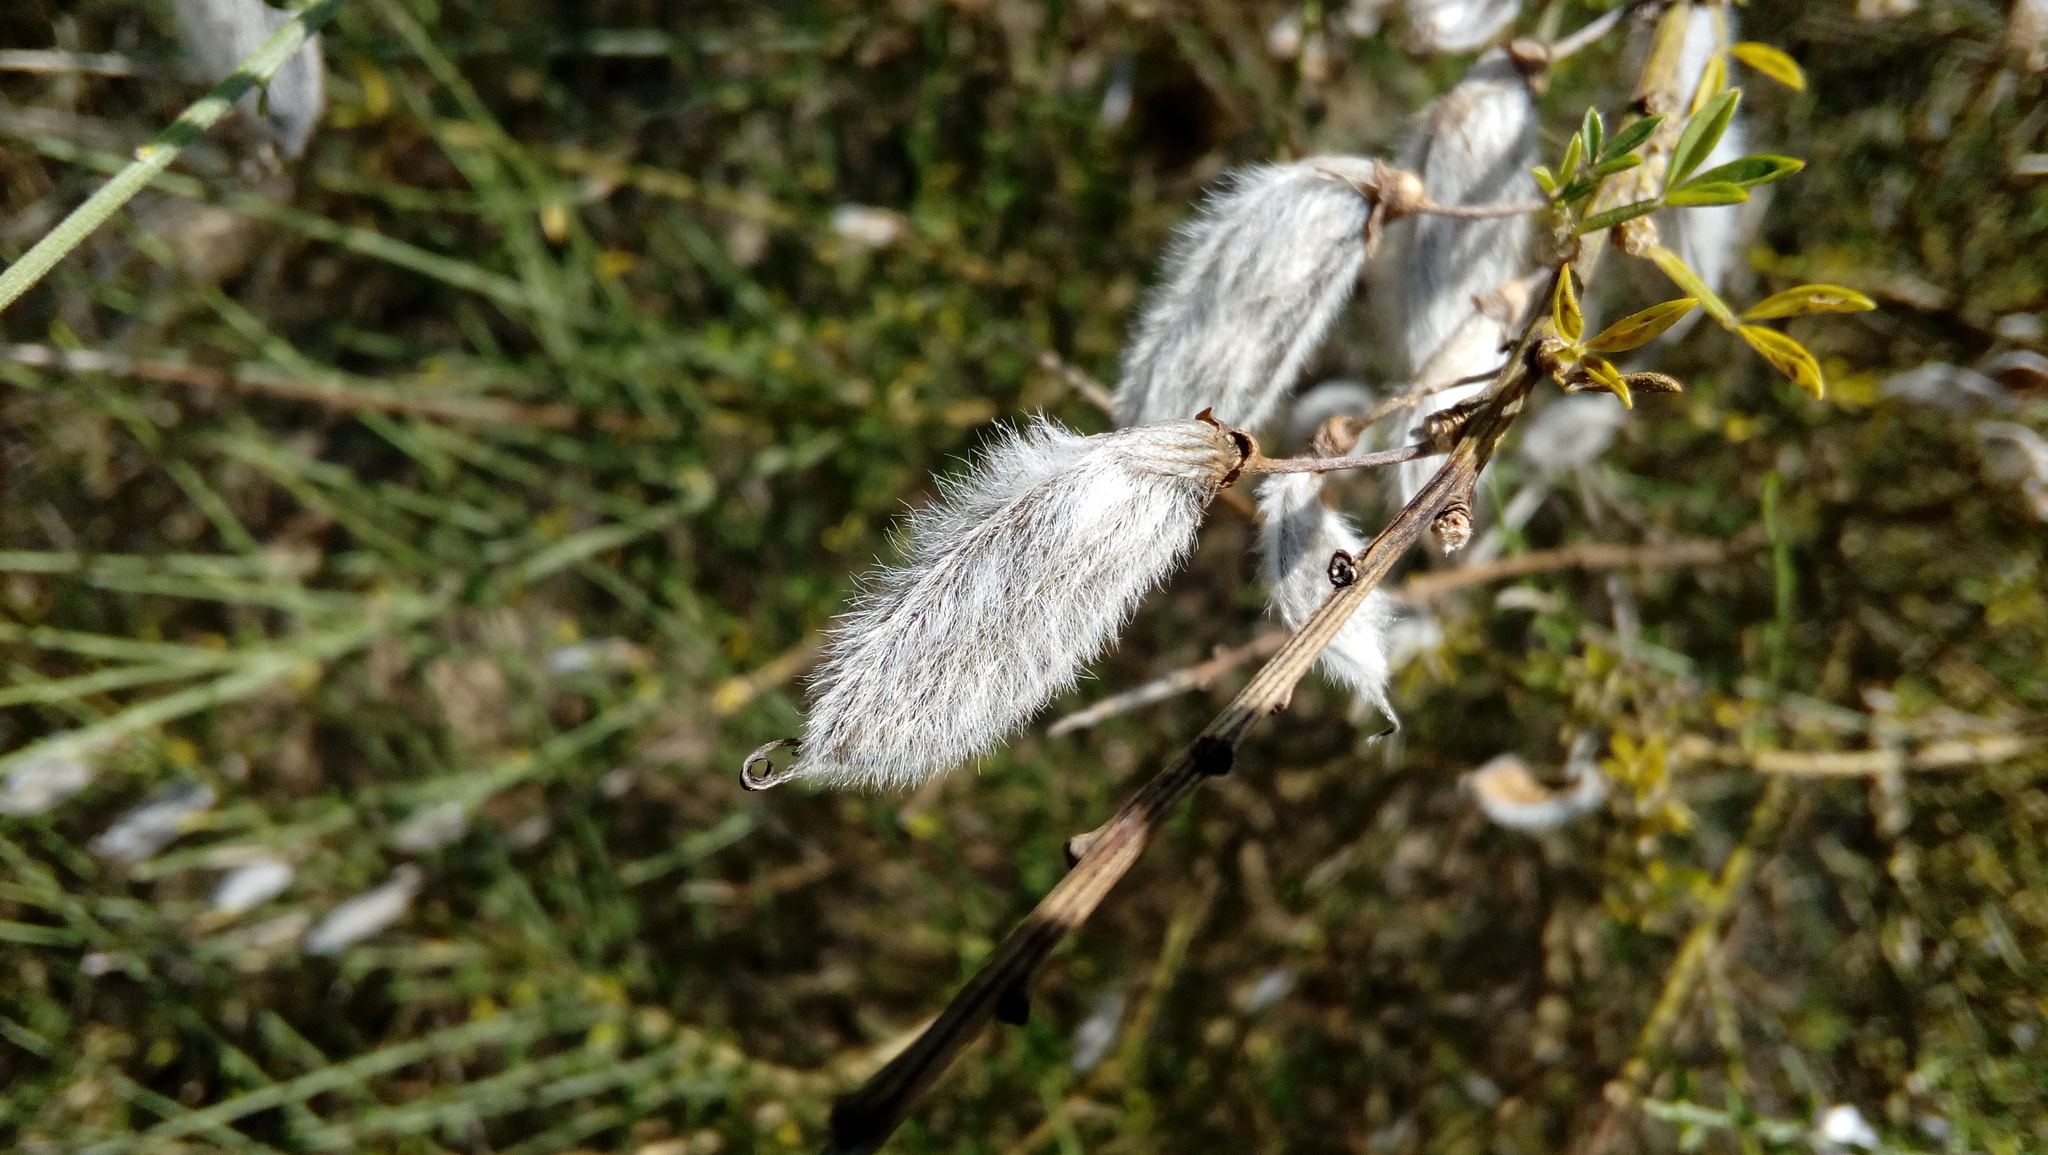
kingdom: Plantae
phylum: Tracheophyta
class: Magnoliopsida
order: Fabales
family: Fabaceae
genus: Cytisus
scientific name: Cytisus striatus
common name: Hairy-fruited broom
